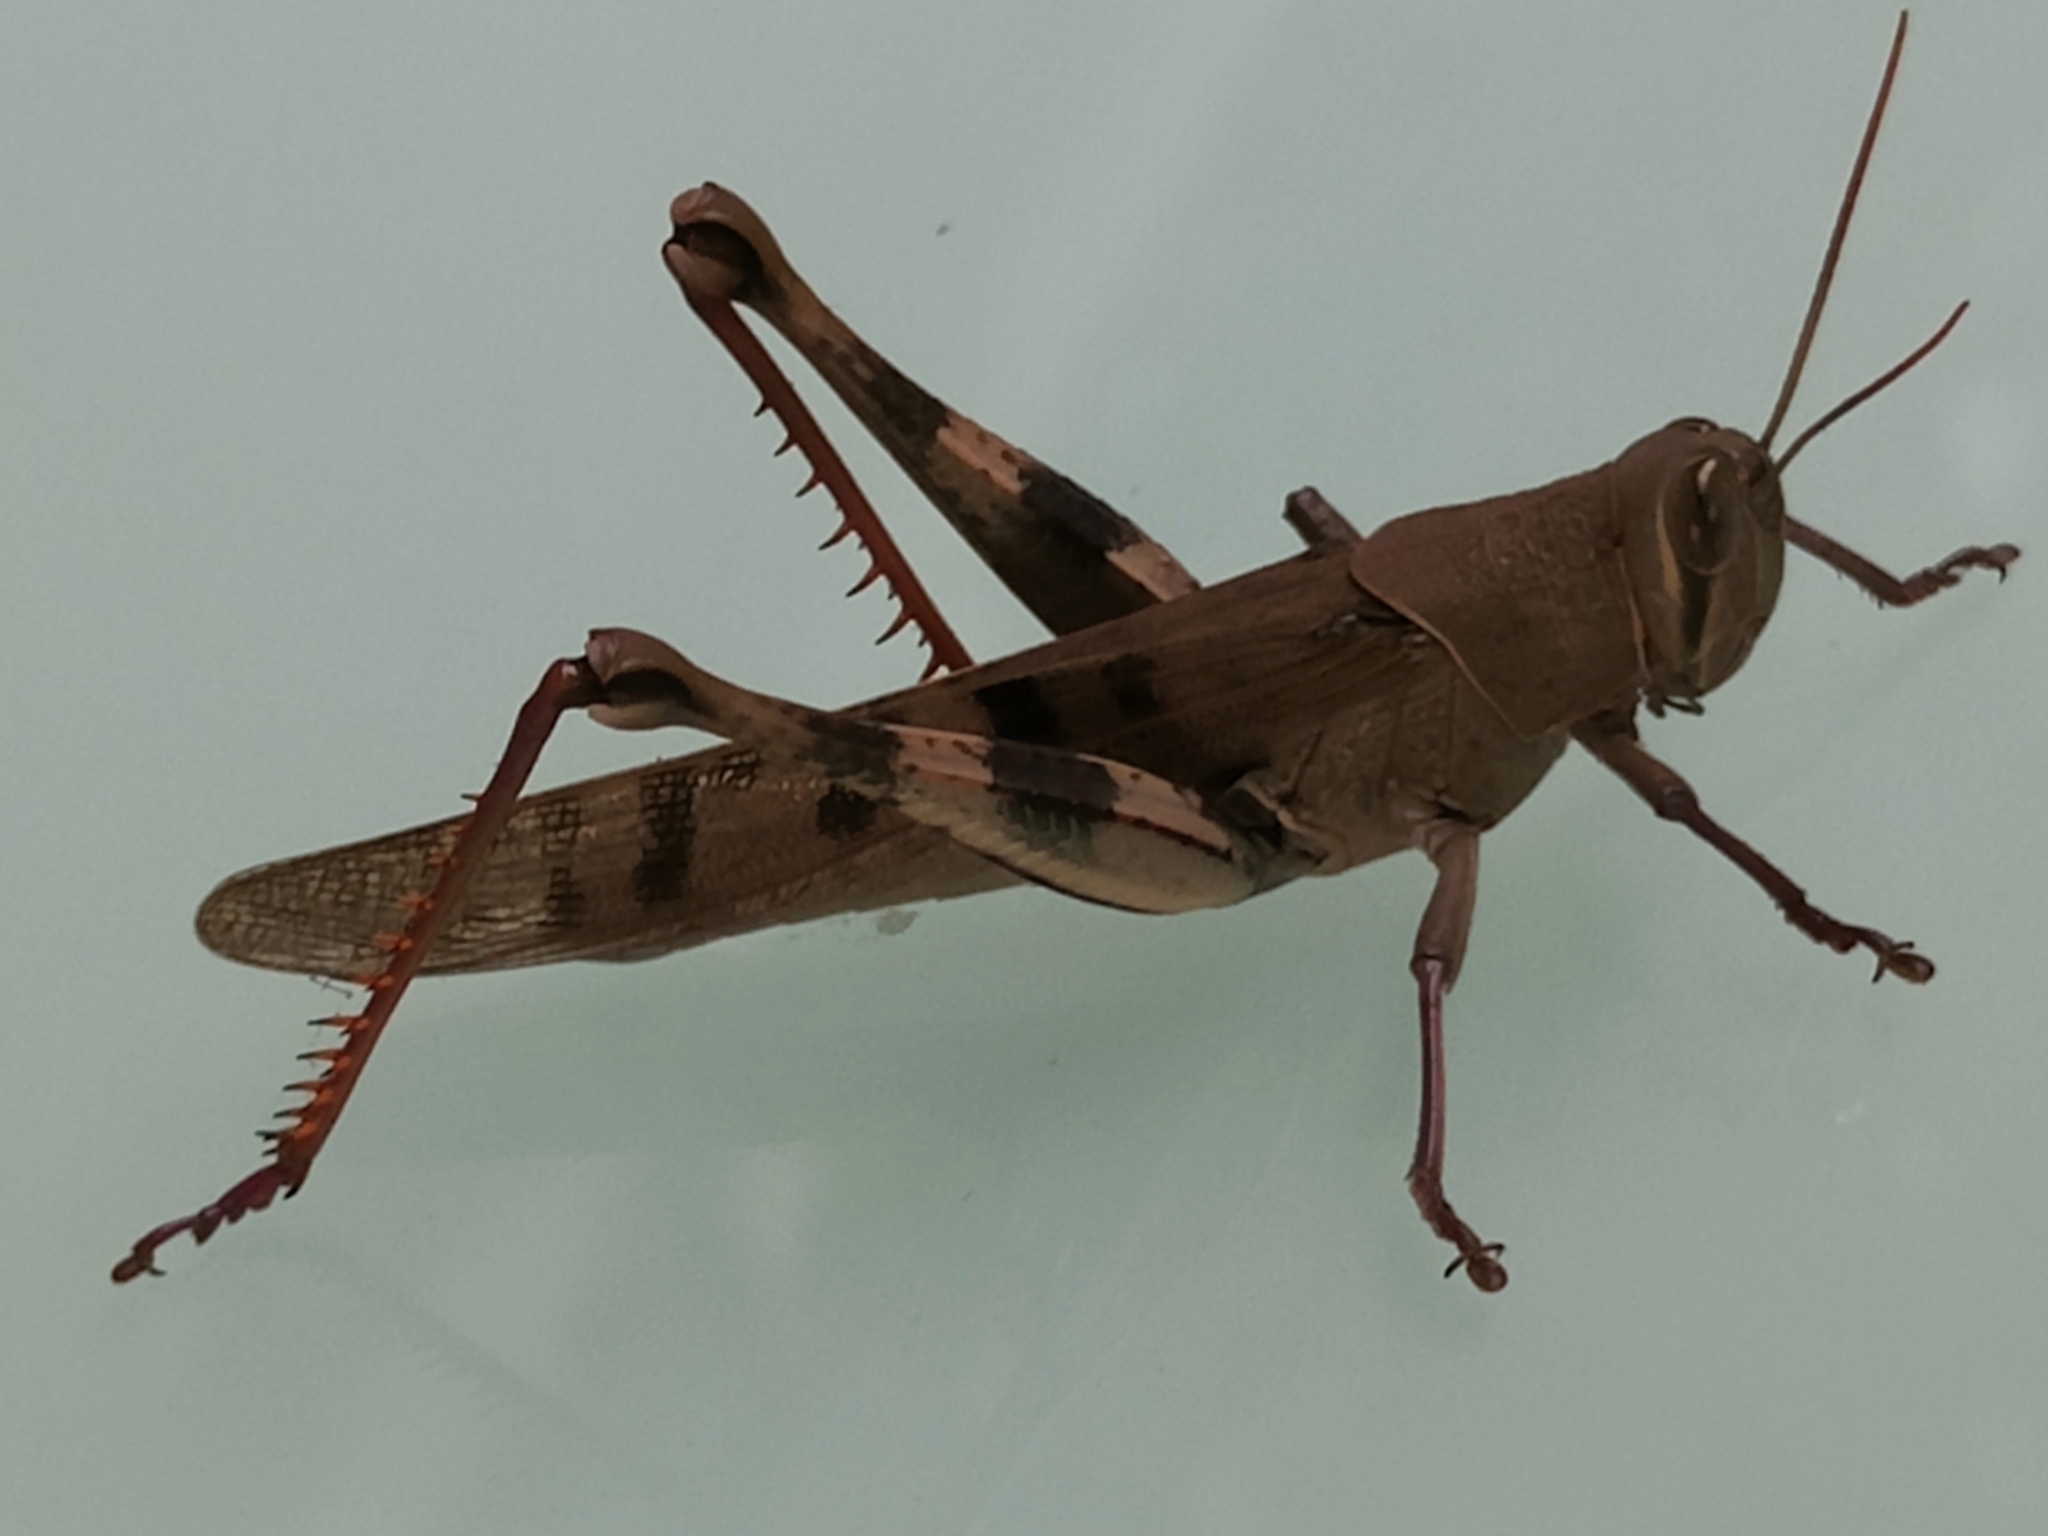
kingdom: Animalia
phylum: Arthropoda
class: Insecta
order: Orthoptera
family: Acrididae
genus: Austracris
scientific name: Austracris basalis
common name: Spotted spur-throated locust
